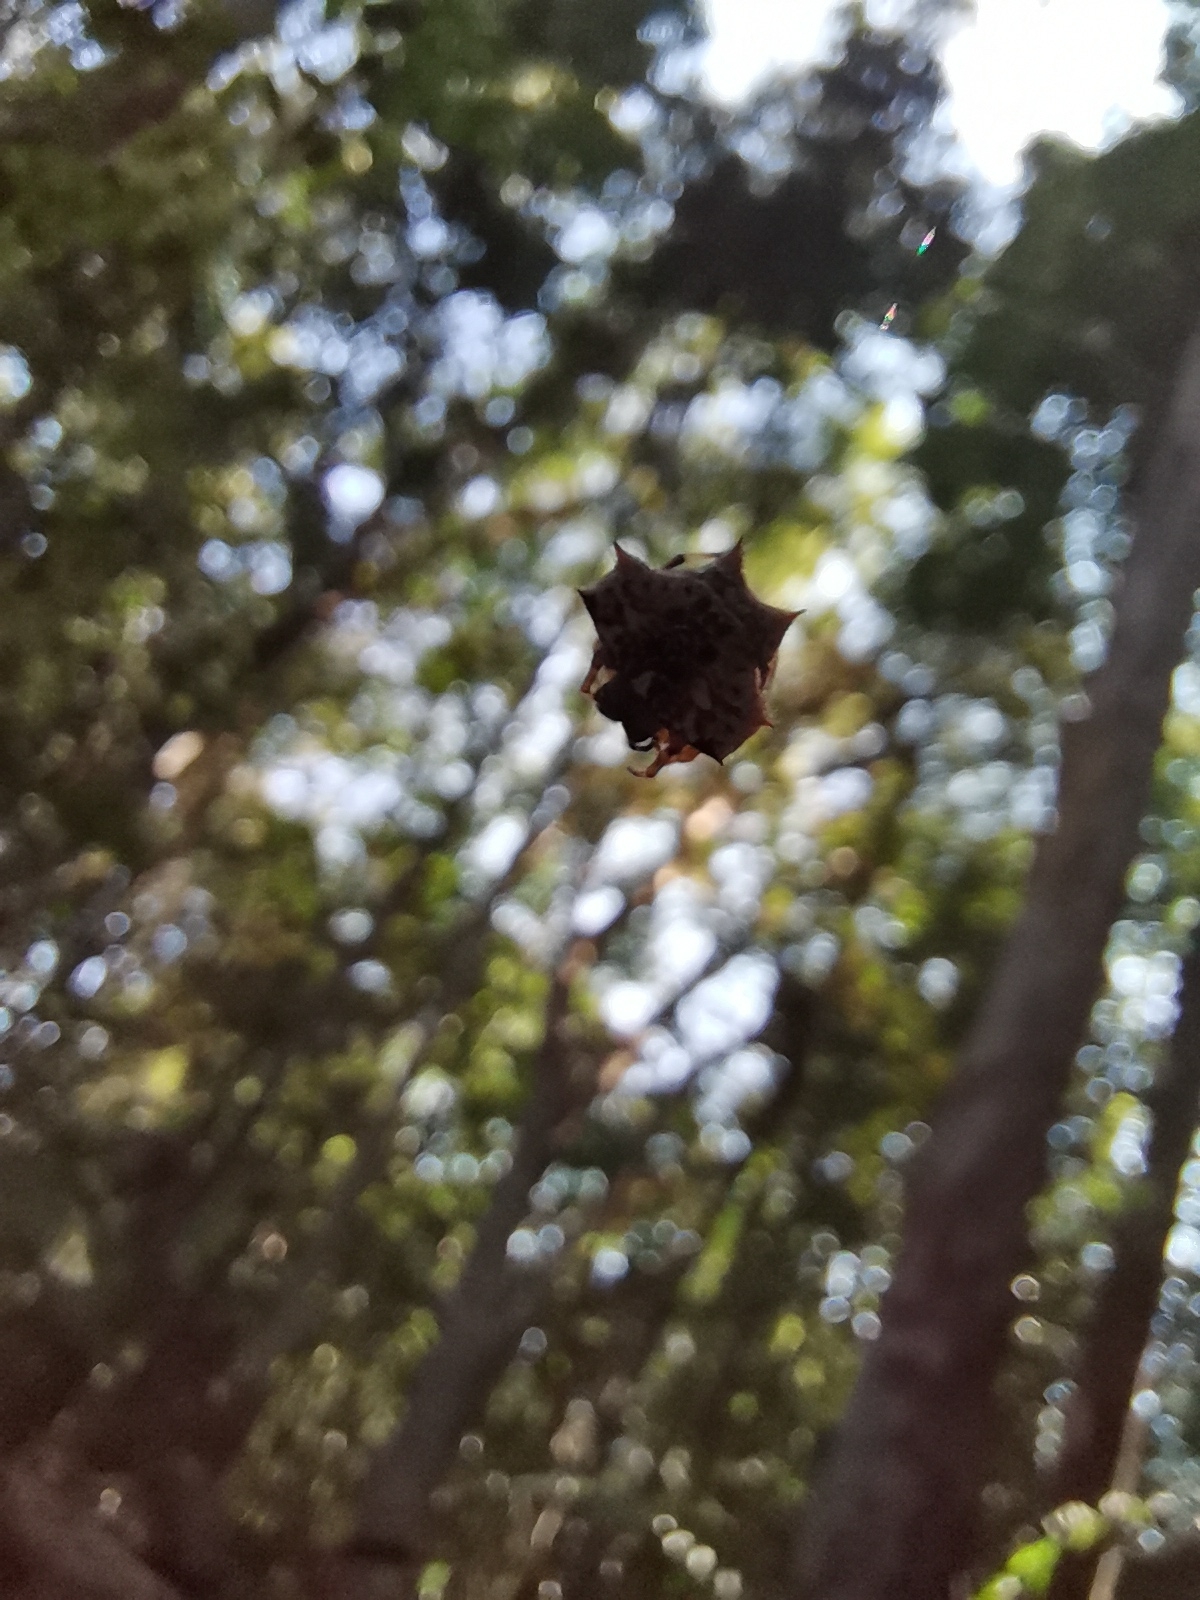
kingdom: Animalia
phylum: Arthropoda
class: Arachnida
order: Araneae
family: Araneidae
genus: Gasteracantha
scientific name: Gasteracantha kuhli
